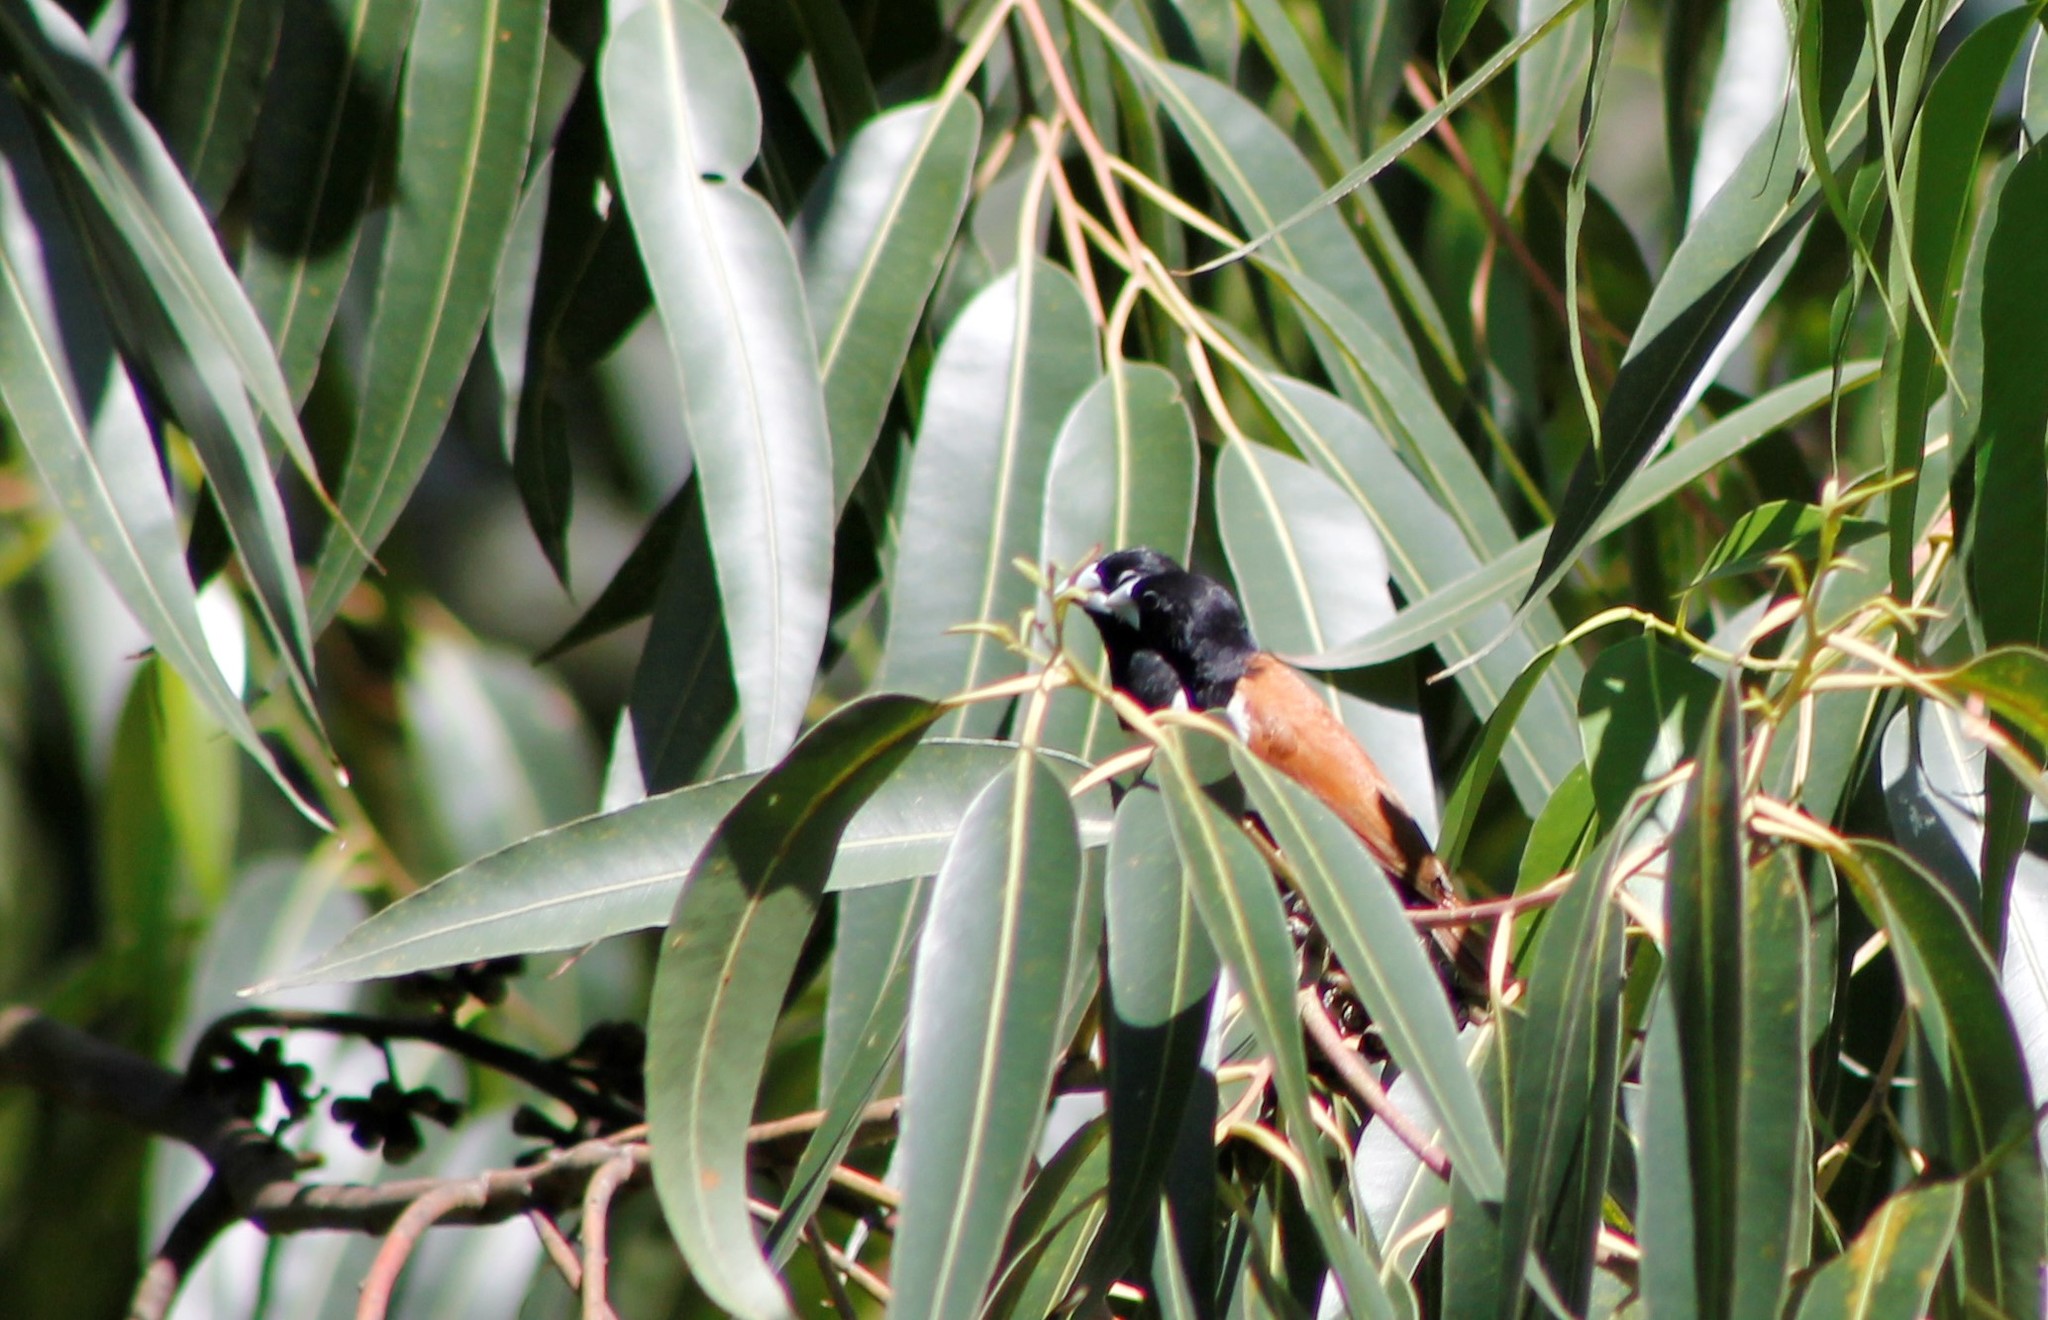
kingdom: Animalia
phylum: Chordata
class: Aves
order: Passeriformes
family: Estrildidae
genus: Lonchura
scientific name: Lonchura malacca
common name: Tricolored munia
